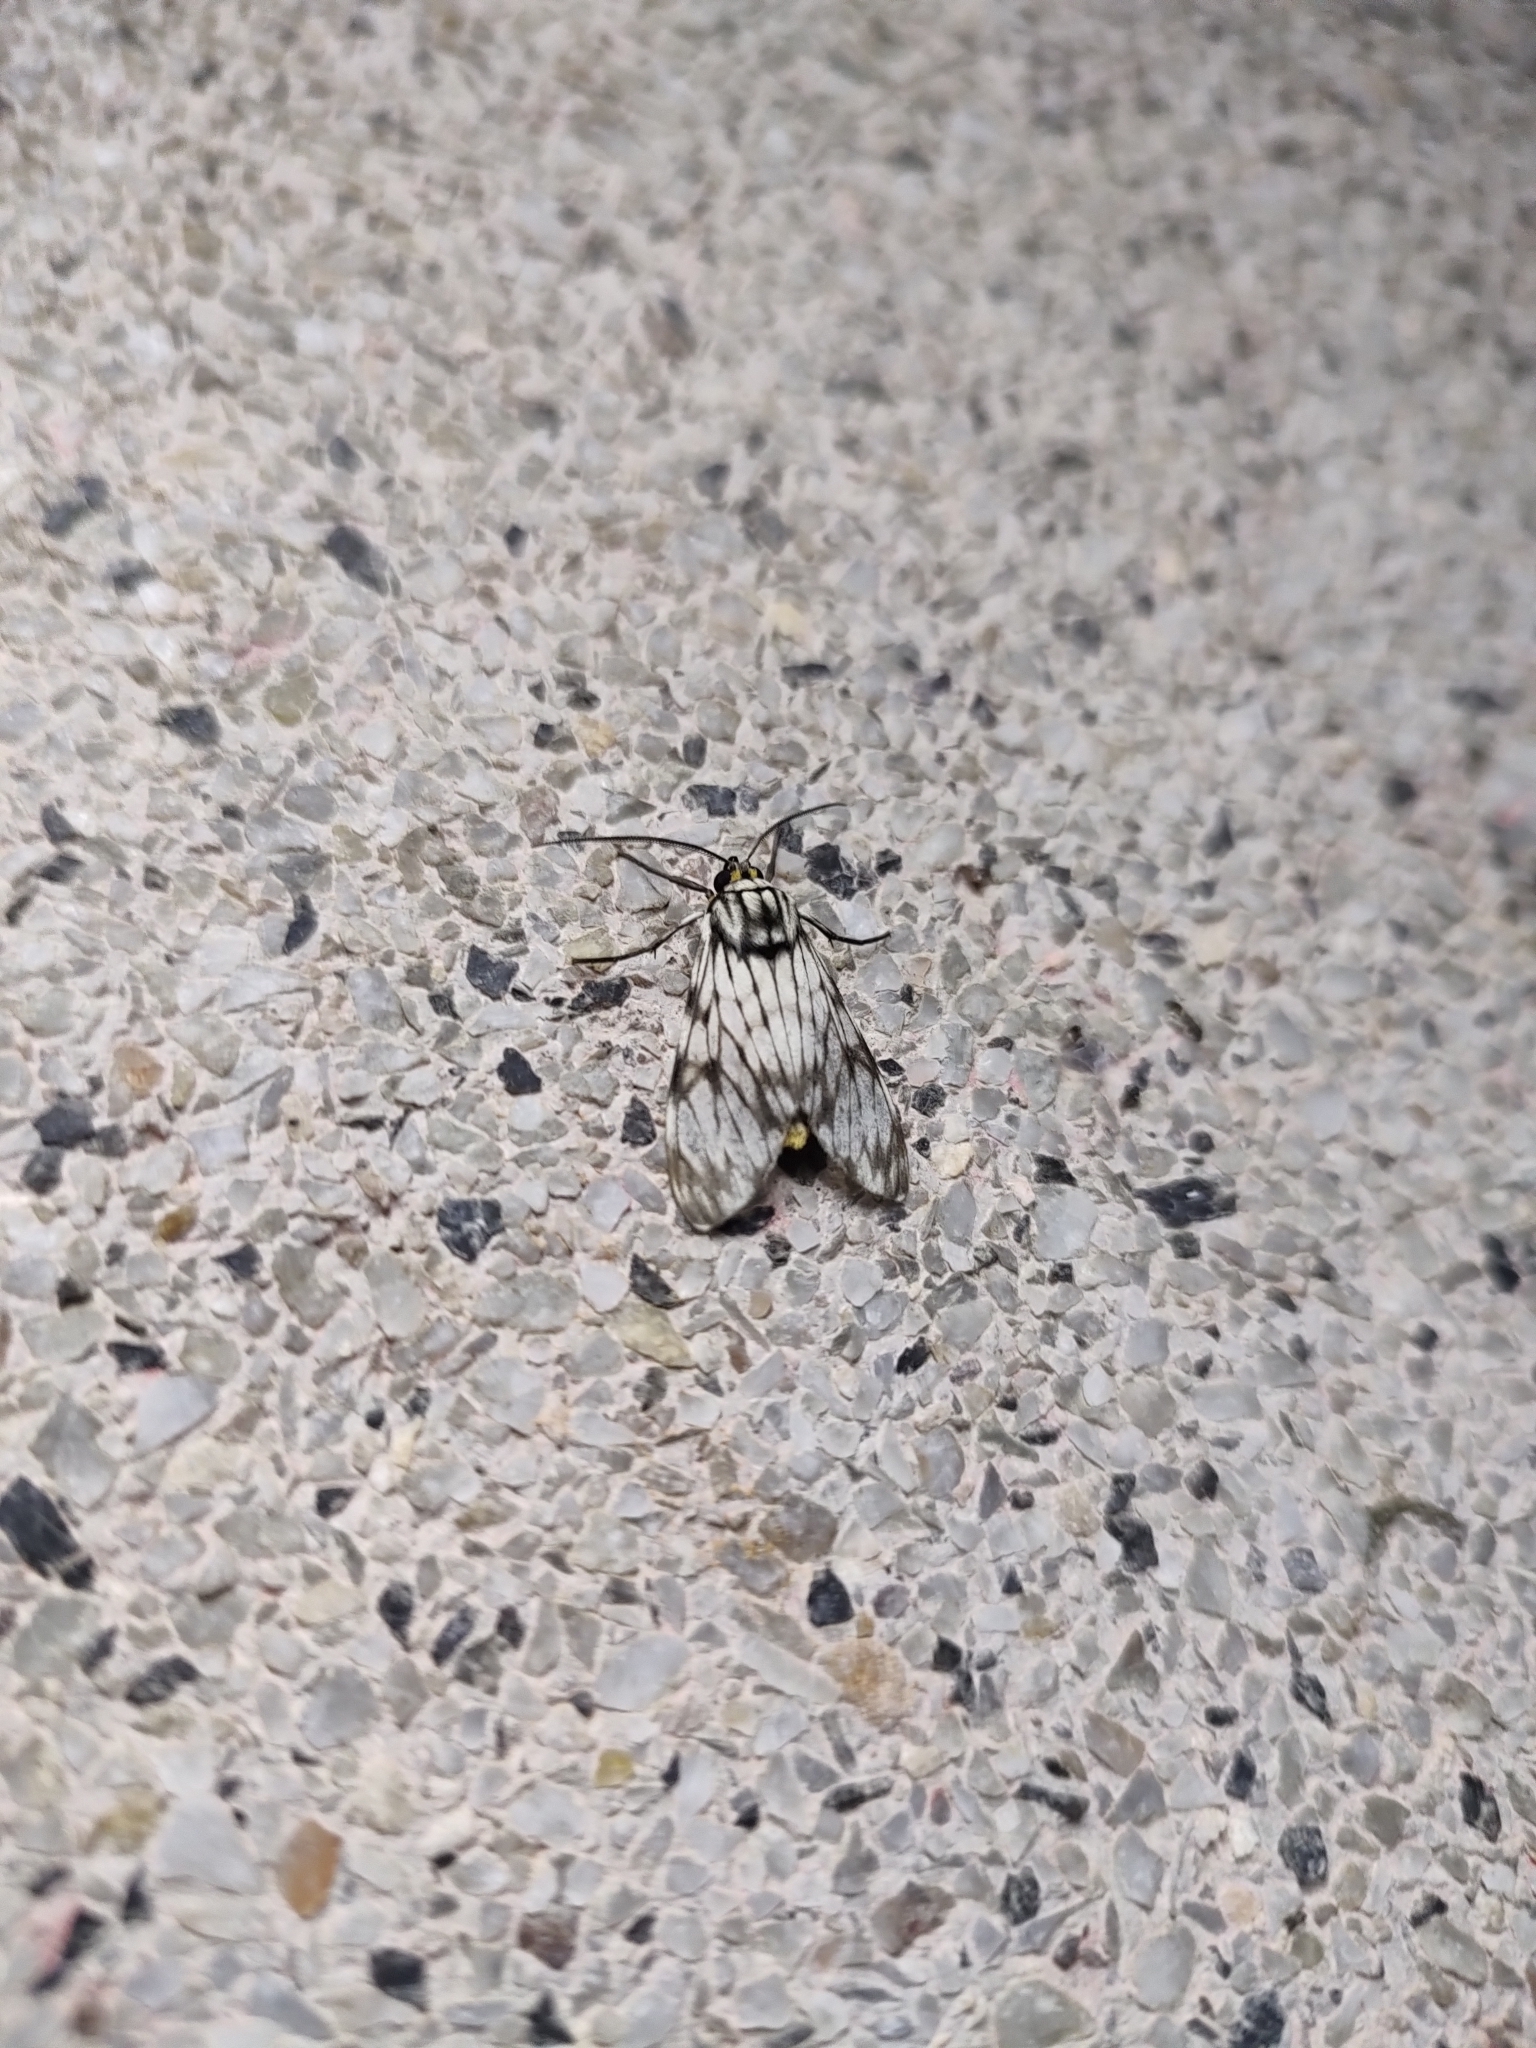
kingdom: Animalia
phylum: Arthropoda
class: Insecta
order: Lepidoptera
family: Erebidae
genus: Theages
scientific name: Theages xantura
